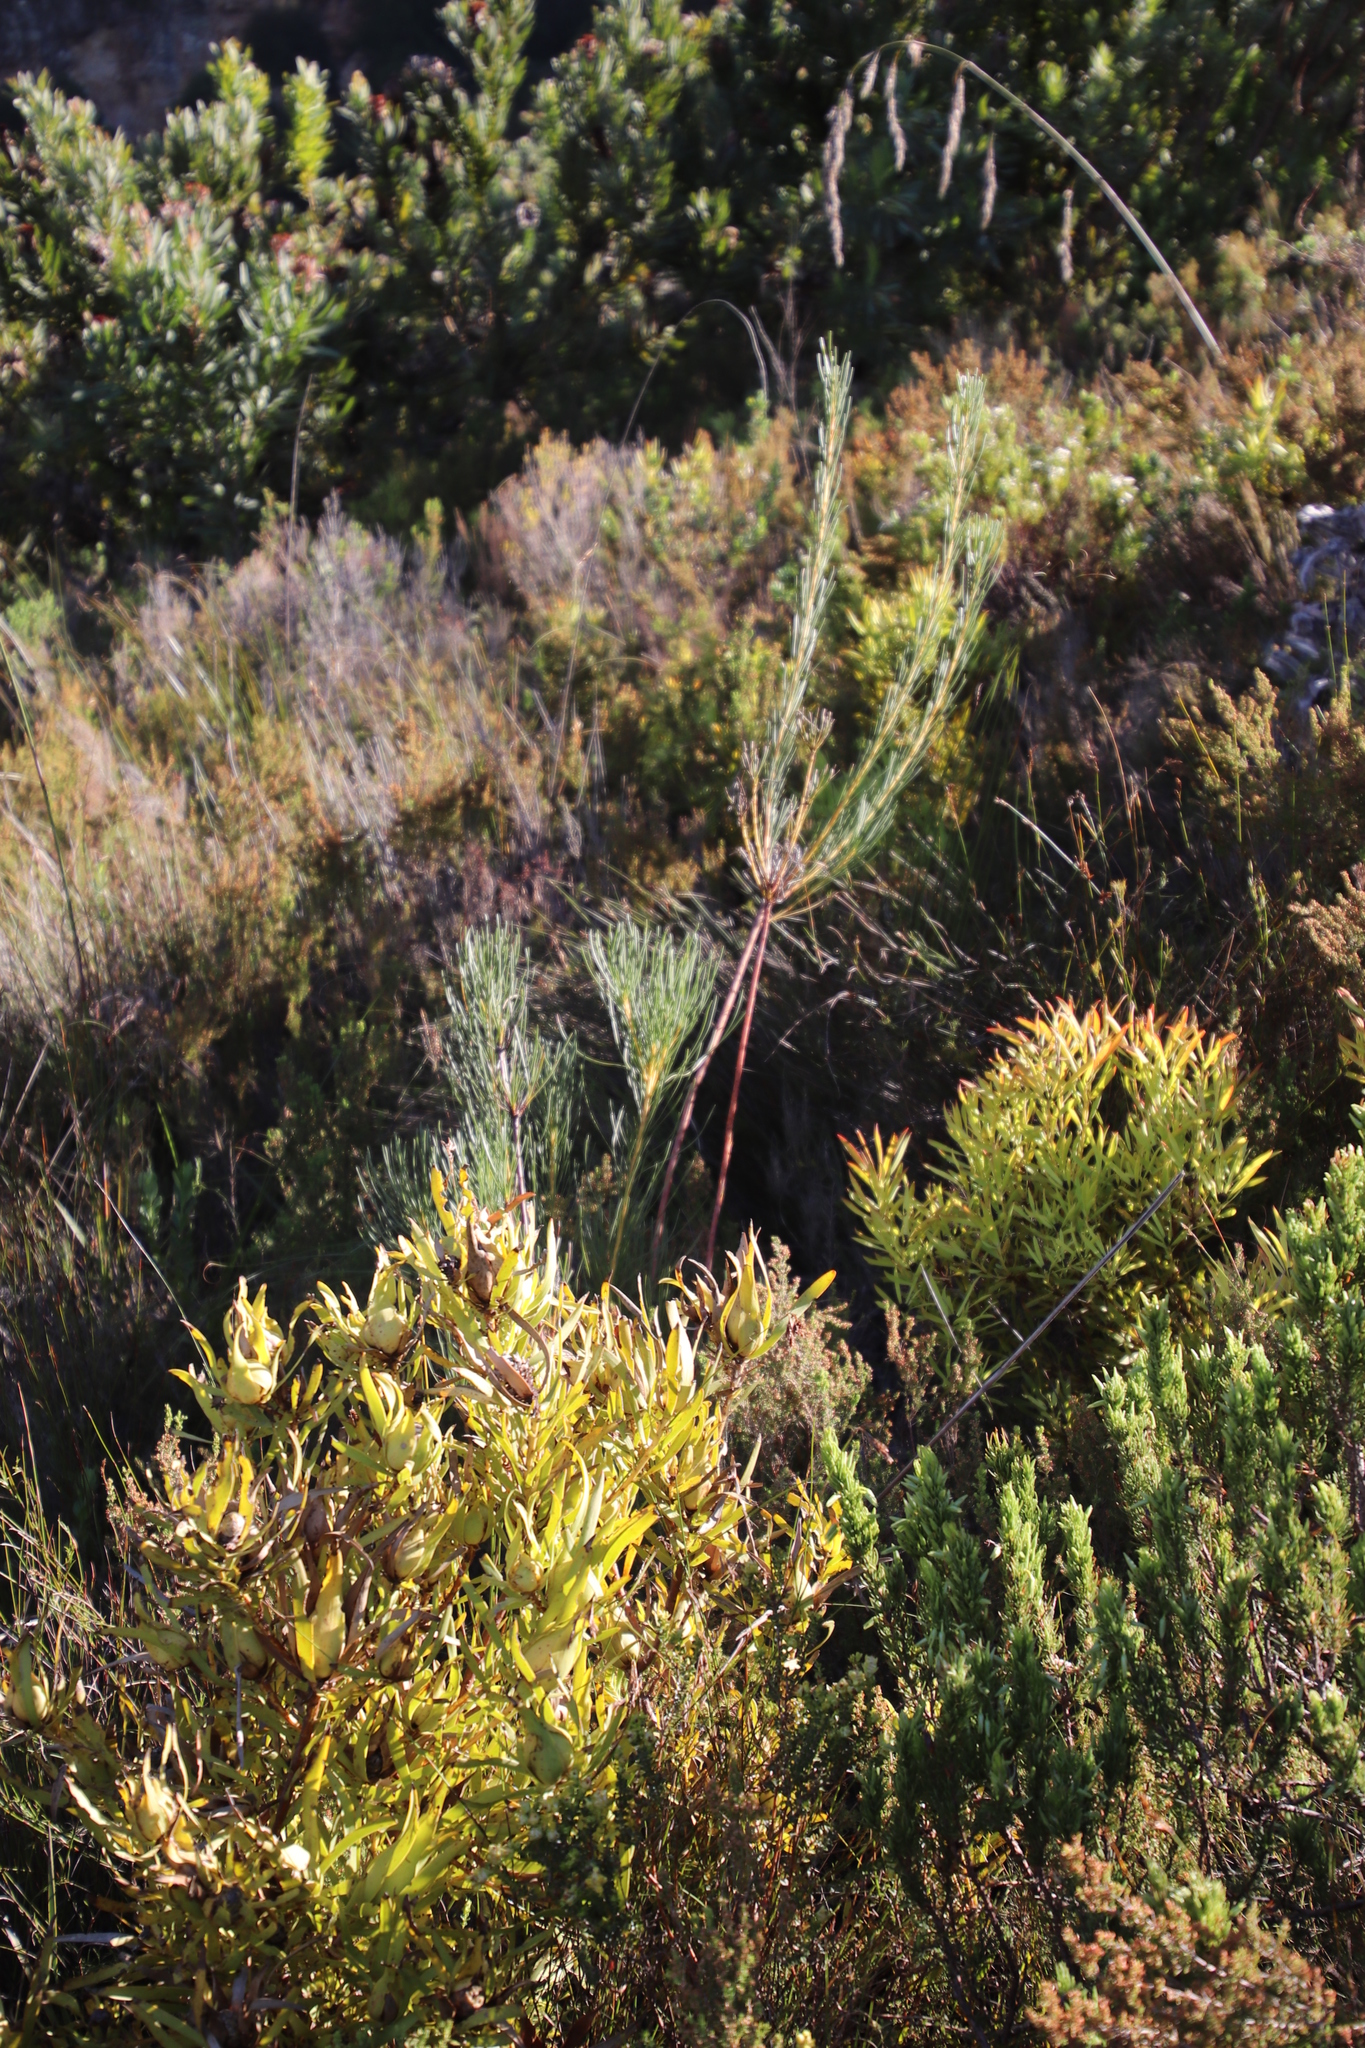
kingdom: Plantae
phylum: Tracheophyta
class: Magnoliopsida
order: Proteales
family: Proteaceae
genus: Aulax
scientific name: Aulax pallasia
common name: Needle-leaf featherbush
